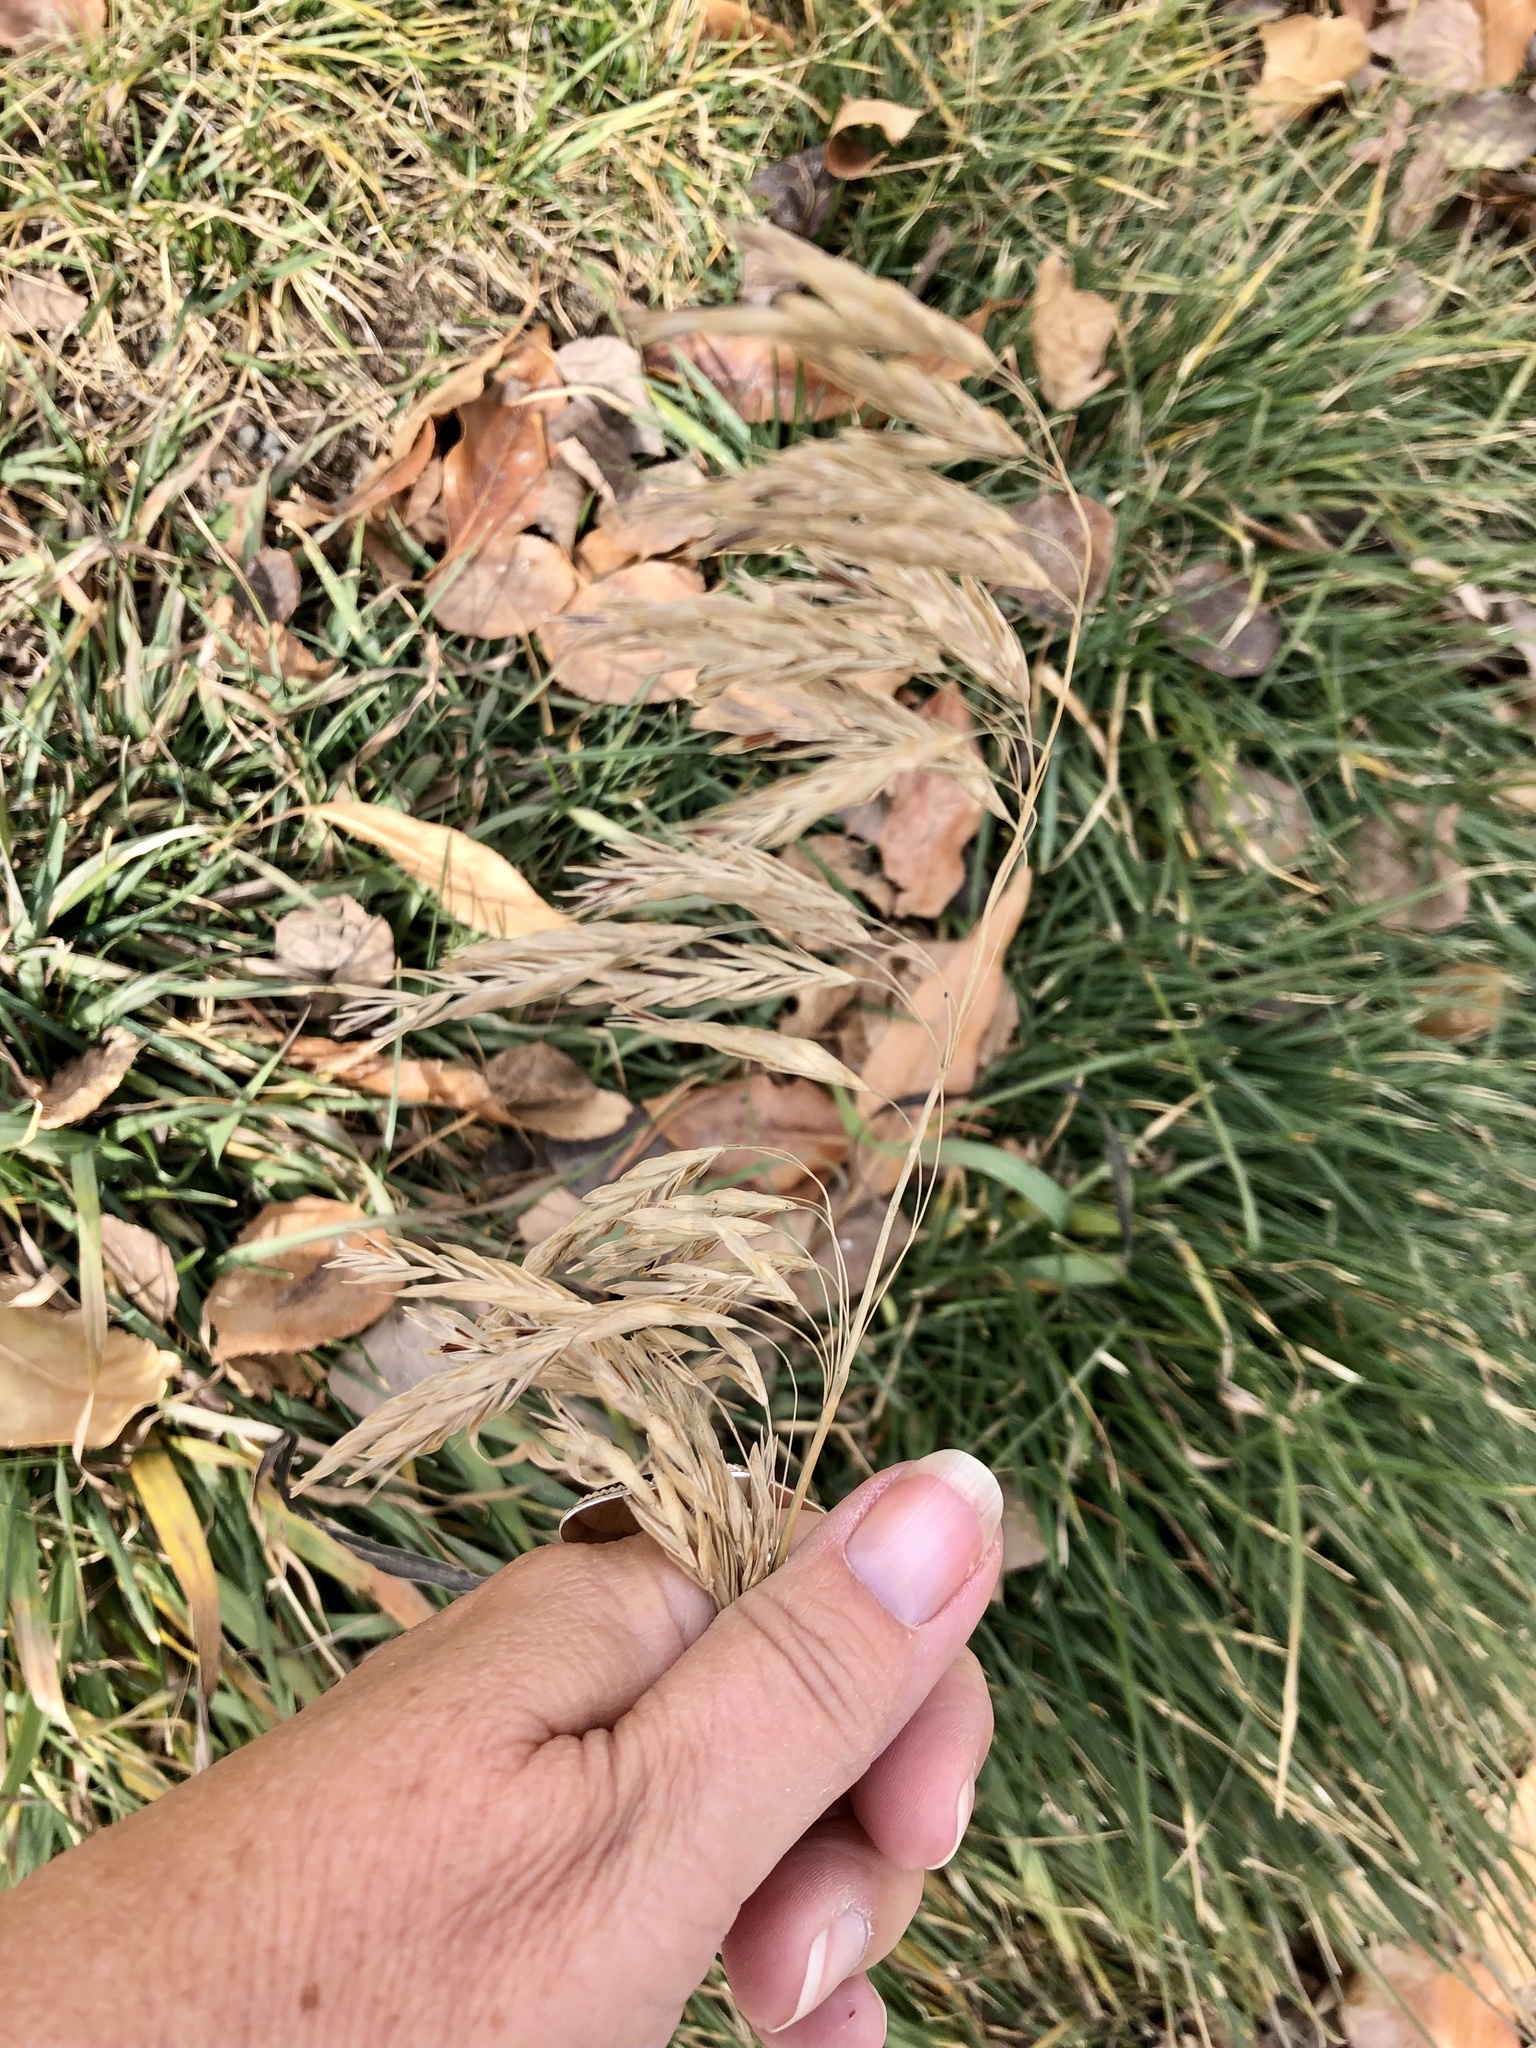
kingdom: Plantae
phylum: Tracheophyta
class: Liliopsida
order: Poales
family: Poaceae
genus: Bromus
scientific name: Bromus inermis
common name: Smooth brome
